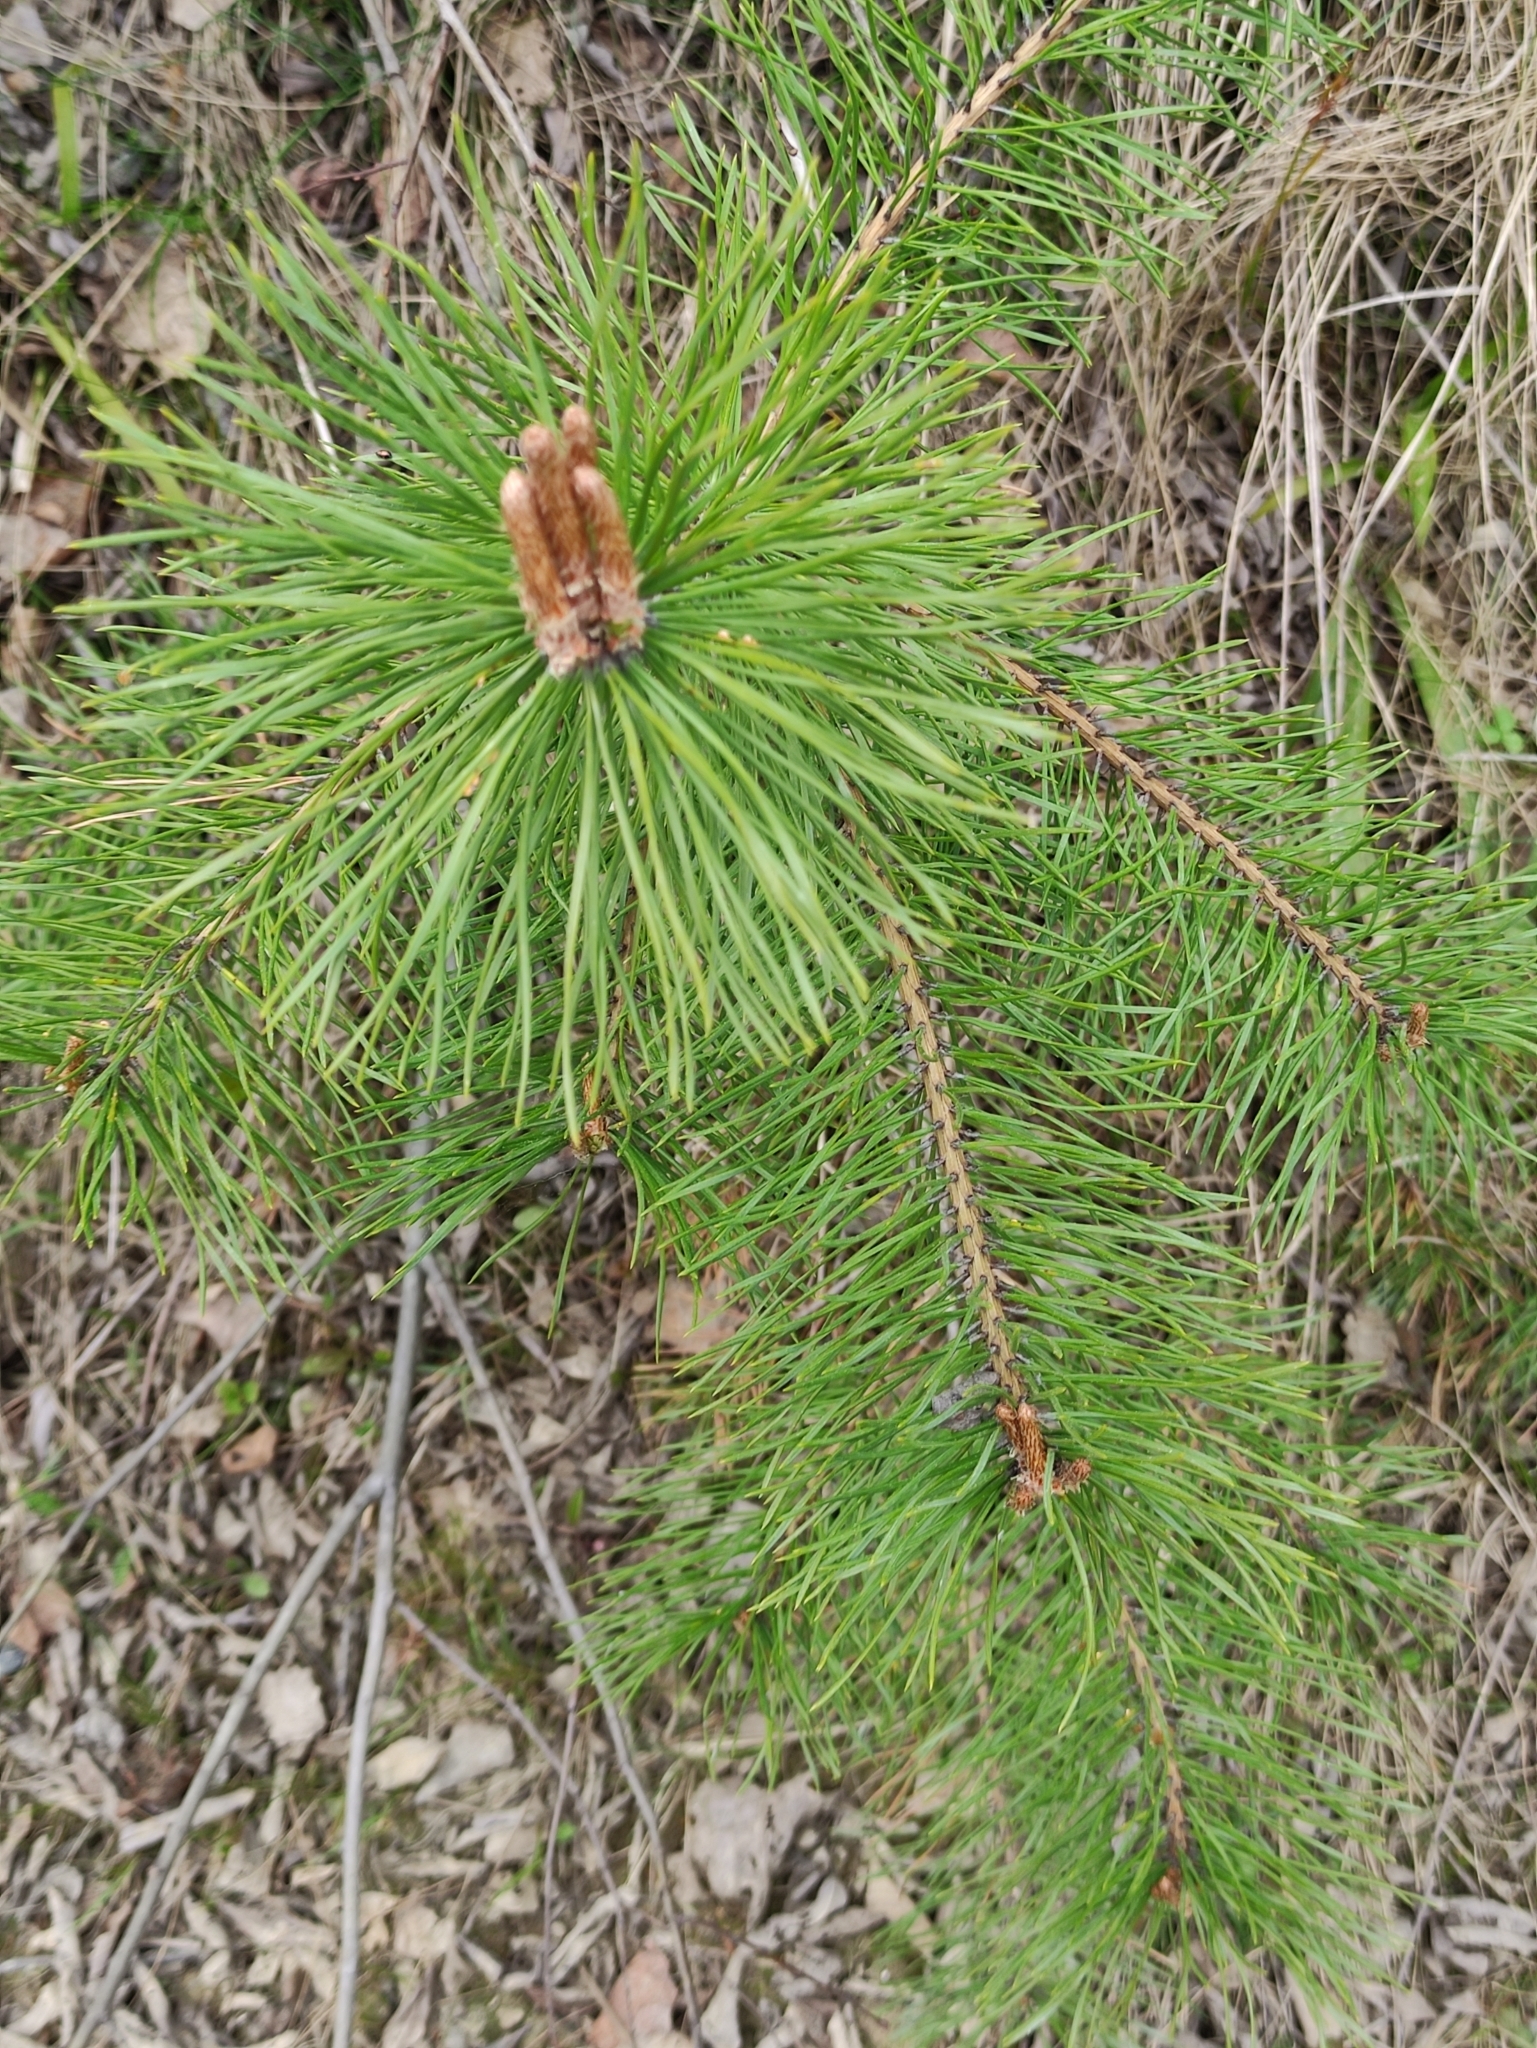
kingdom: Plantae
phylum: Tracheophyta
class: Pinopsida
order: Pinales
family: Pinaceae
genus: Pinus
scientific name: Pinus sylvestris
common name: Scots pine
